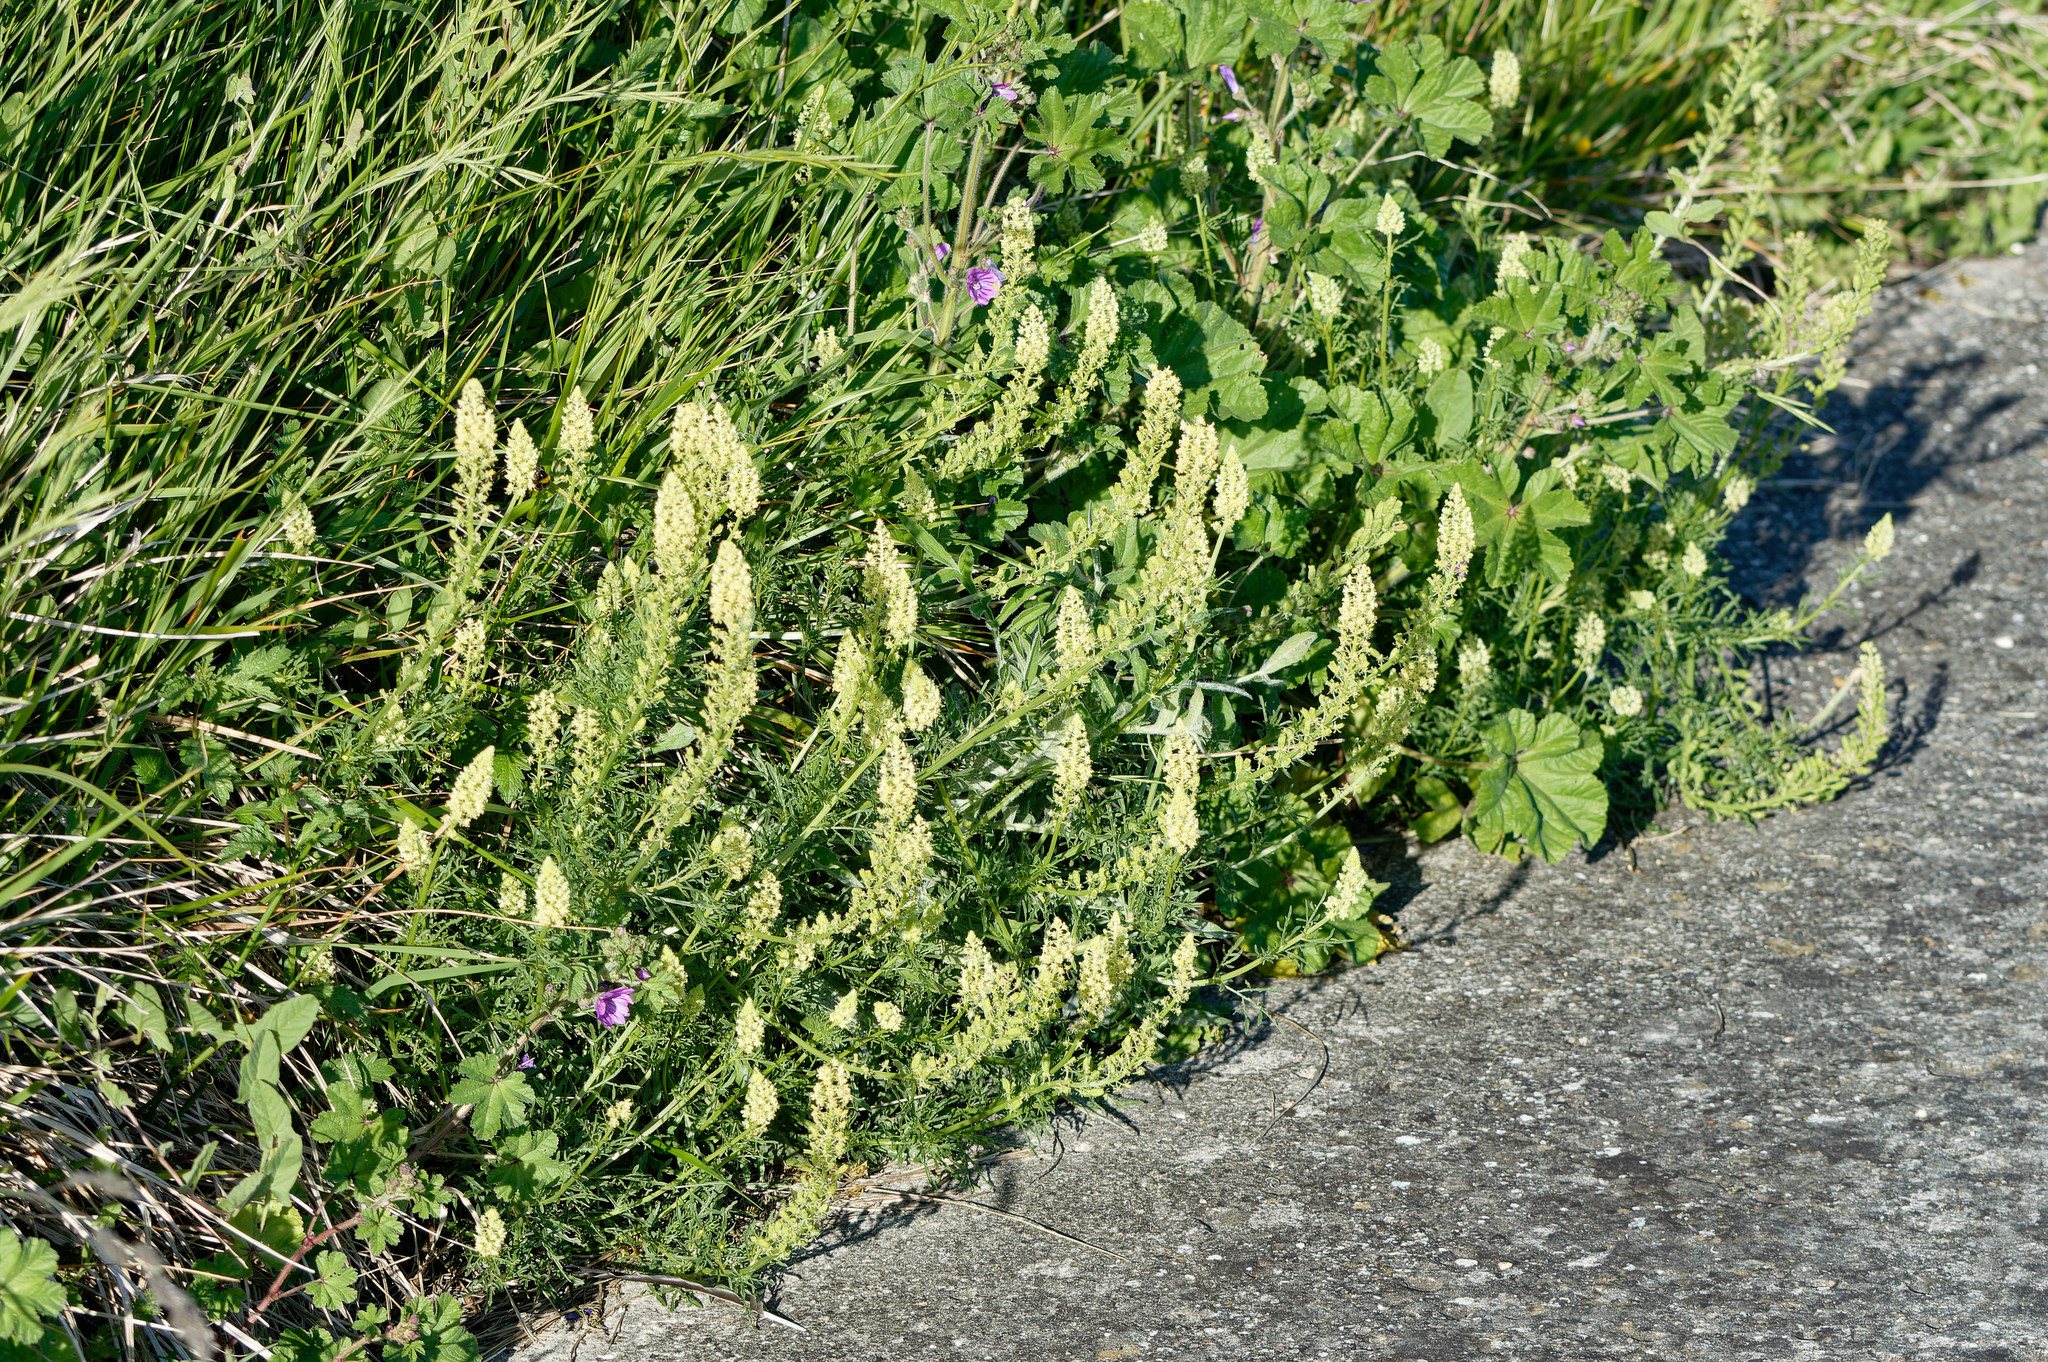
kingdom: Plantae
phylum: Tracheophyta
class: Magnoliopsida
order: Brassicales
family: Resedaceae
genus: Reseda
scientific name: Reseda lutea
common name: Wild mignonette
